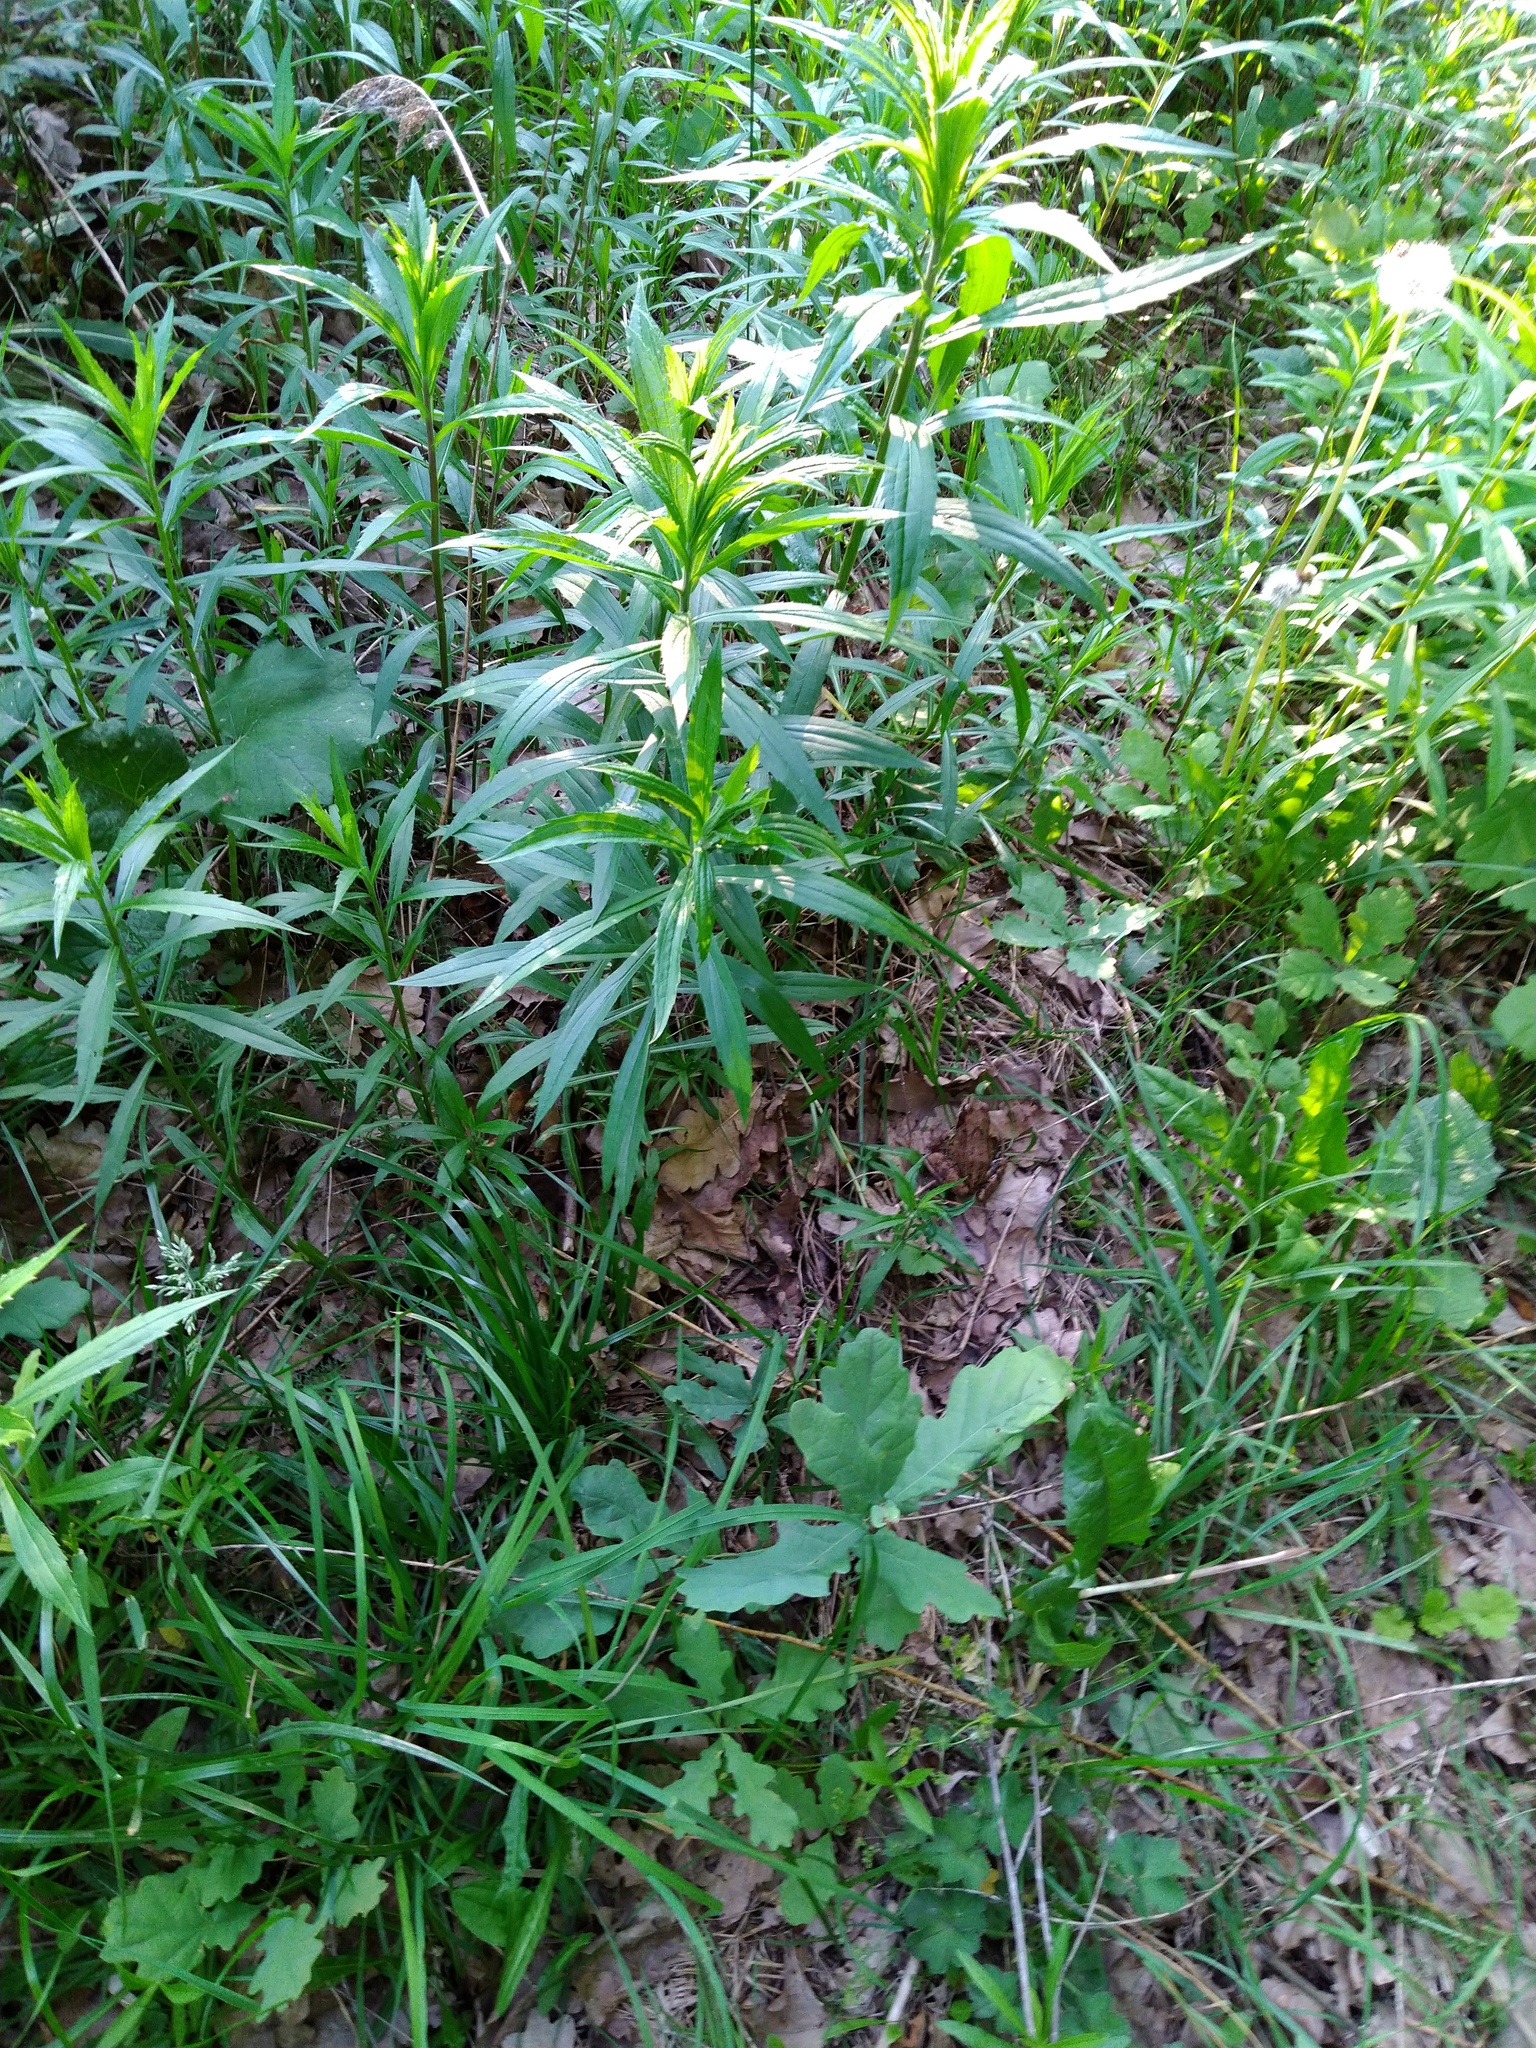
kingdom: Plantae
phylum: Tracheophyta
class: Magnoliopsida
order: Asterales
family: Asteraceae
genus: Solidago
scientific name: Solidago canadensis
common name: Canada goldenrod
